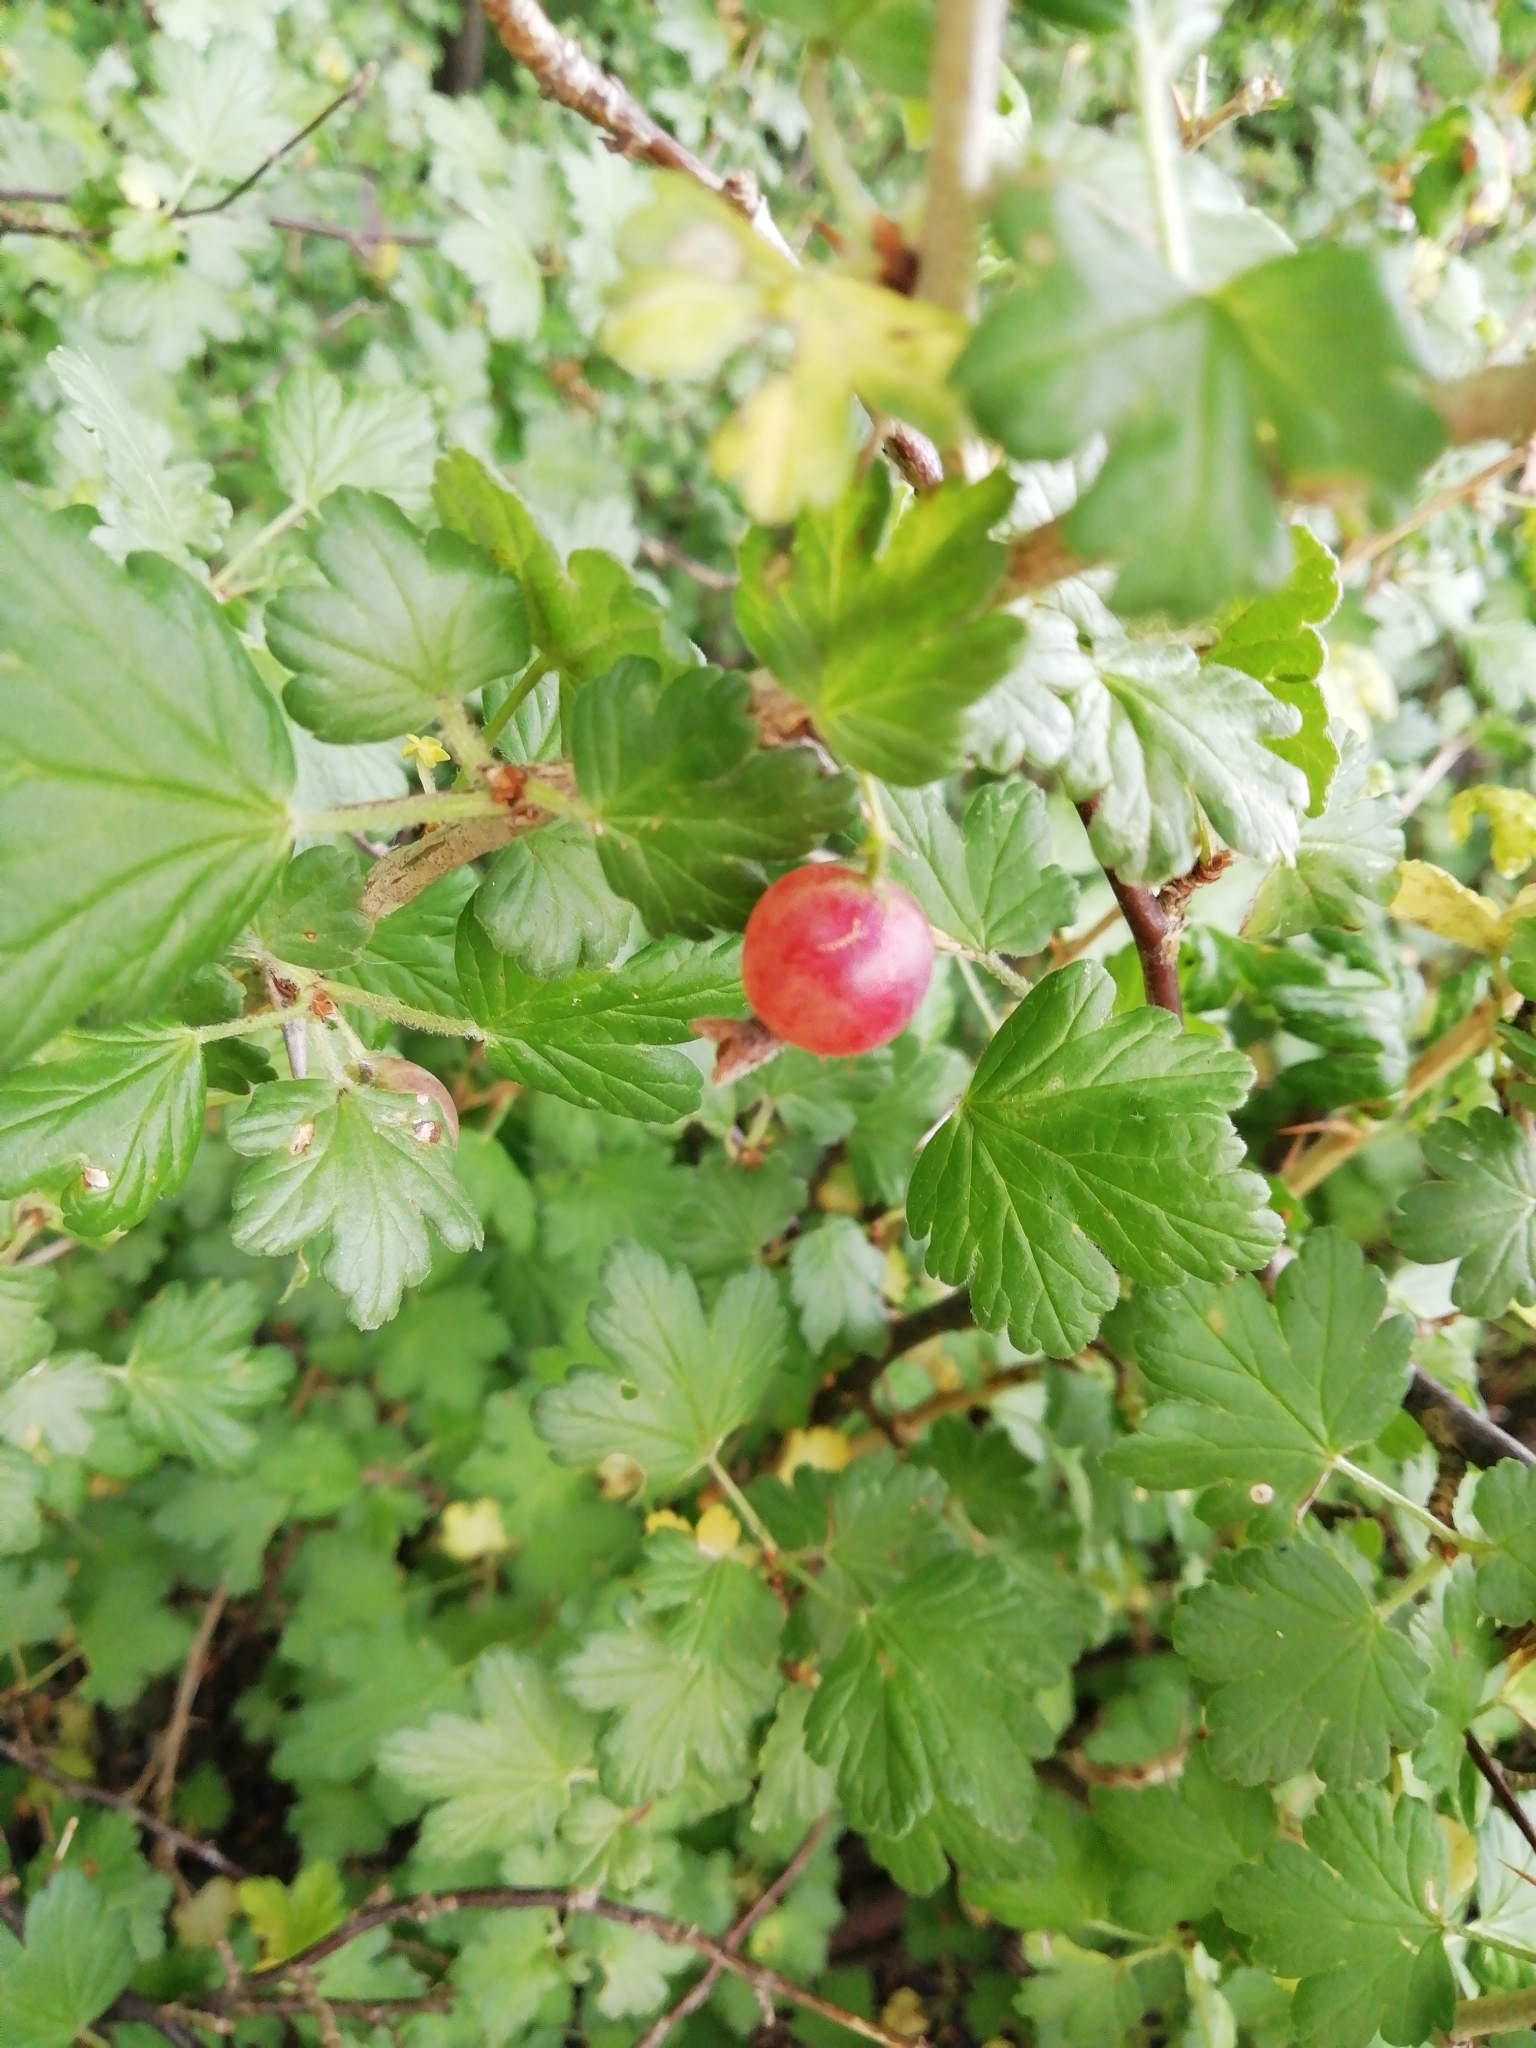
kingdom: Plantae
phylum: Tracheophyta
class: Magnoliopsida
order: Saxifragales
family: Grossulariaceae
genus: Ribes
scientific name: Ribes uva-crispa
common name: Gooseberry
